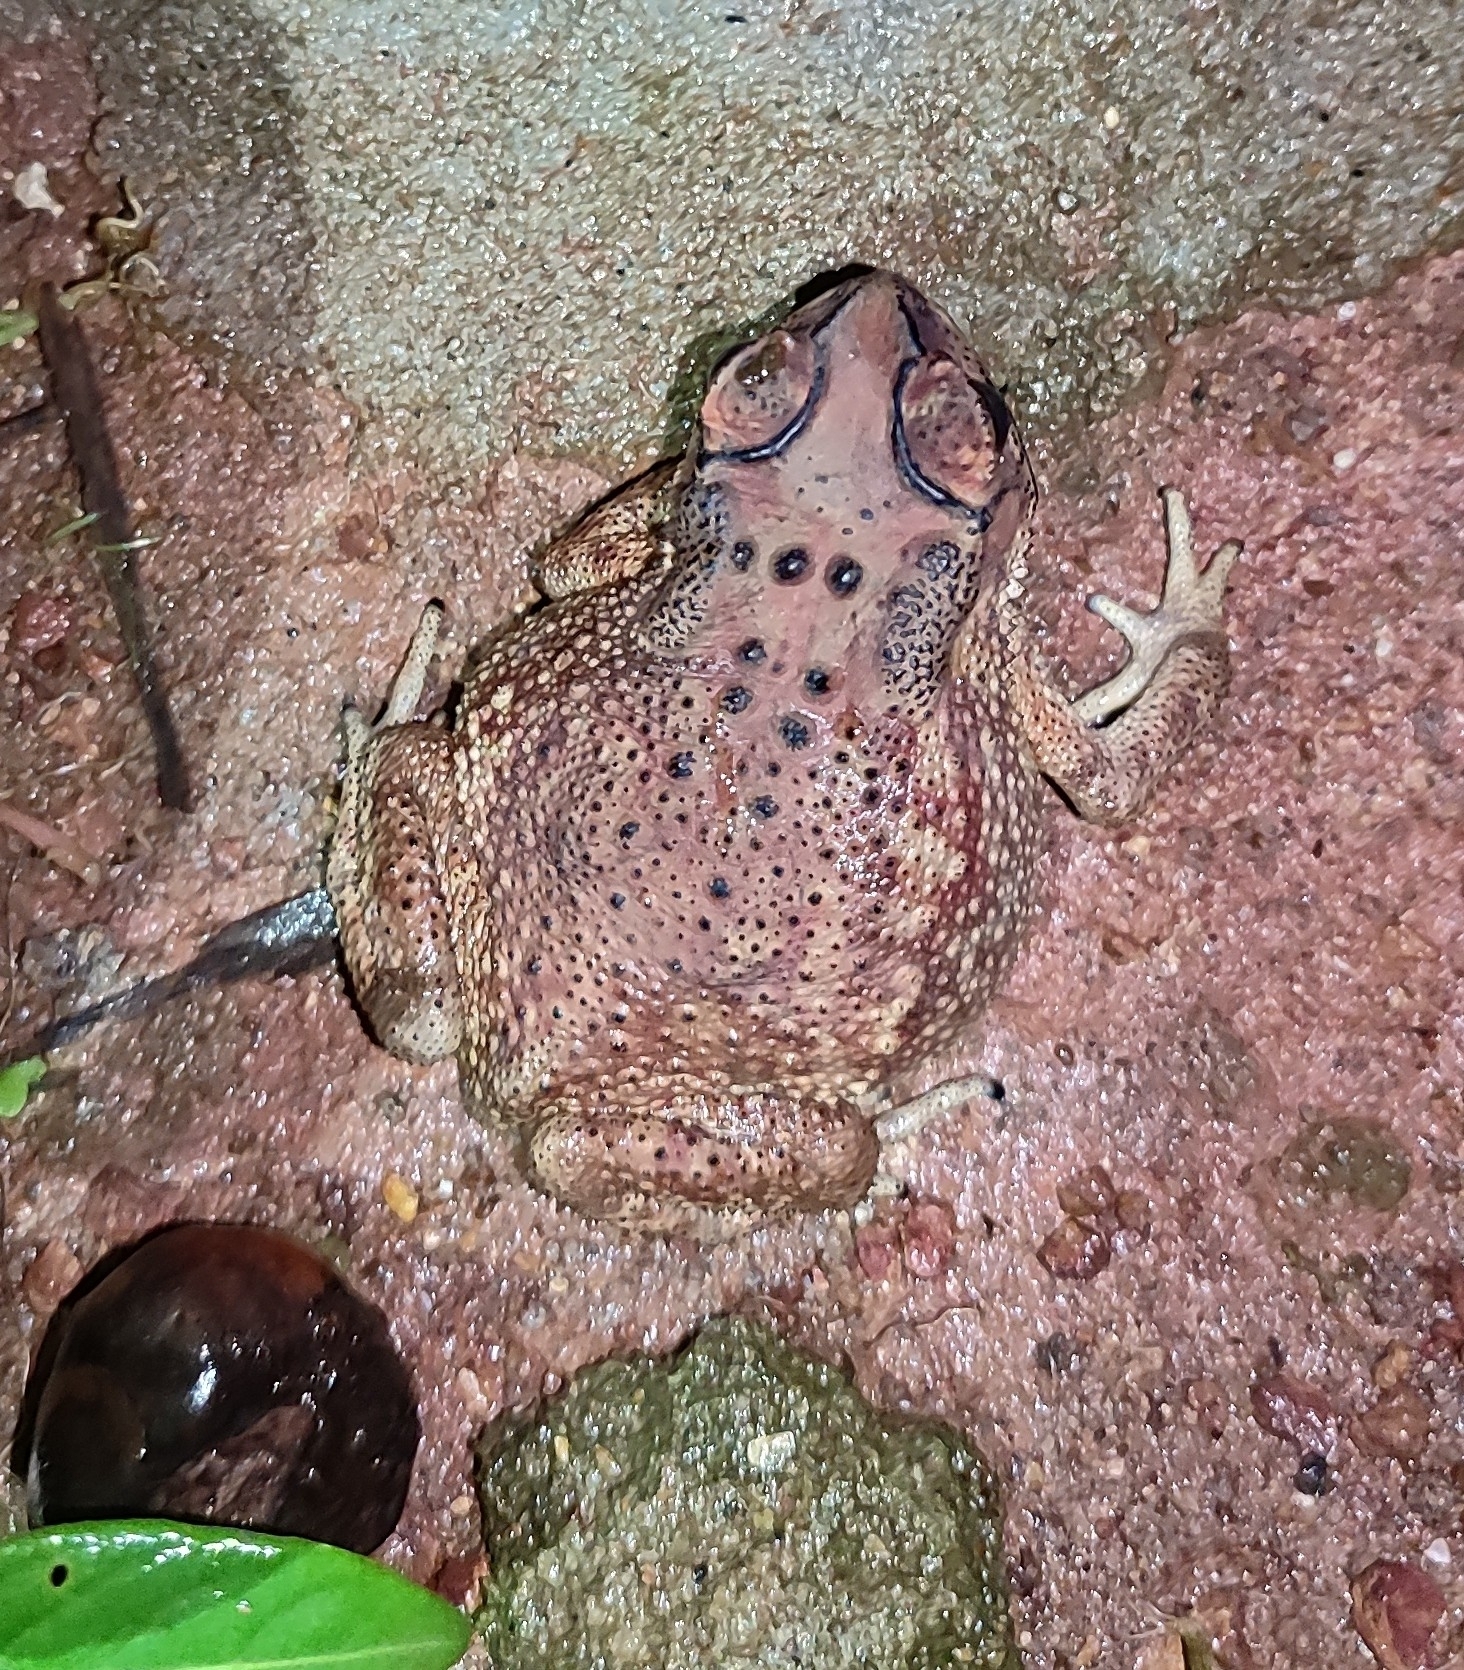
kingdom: Animalia
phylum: Chordata
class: Amphibia
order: Anura
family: Bufonidae
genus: Duttaphrynus
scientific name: Duttaphrynus melanostictus
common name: Common sunda toad
